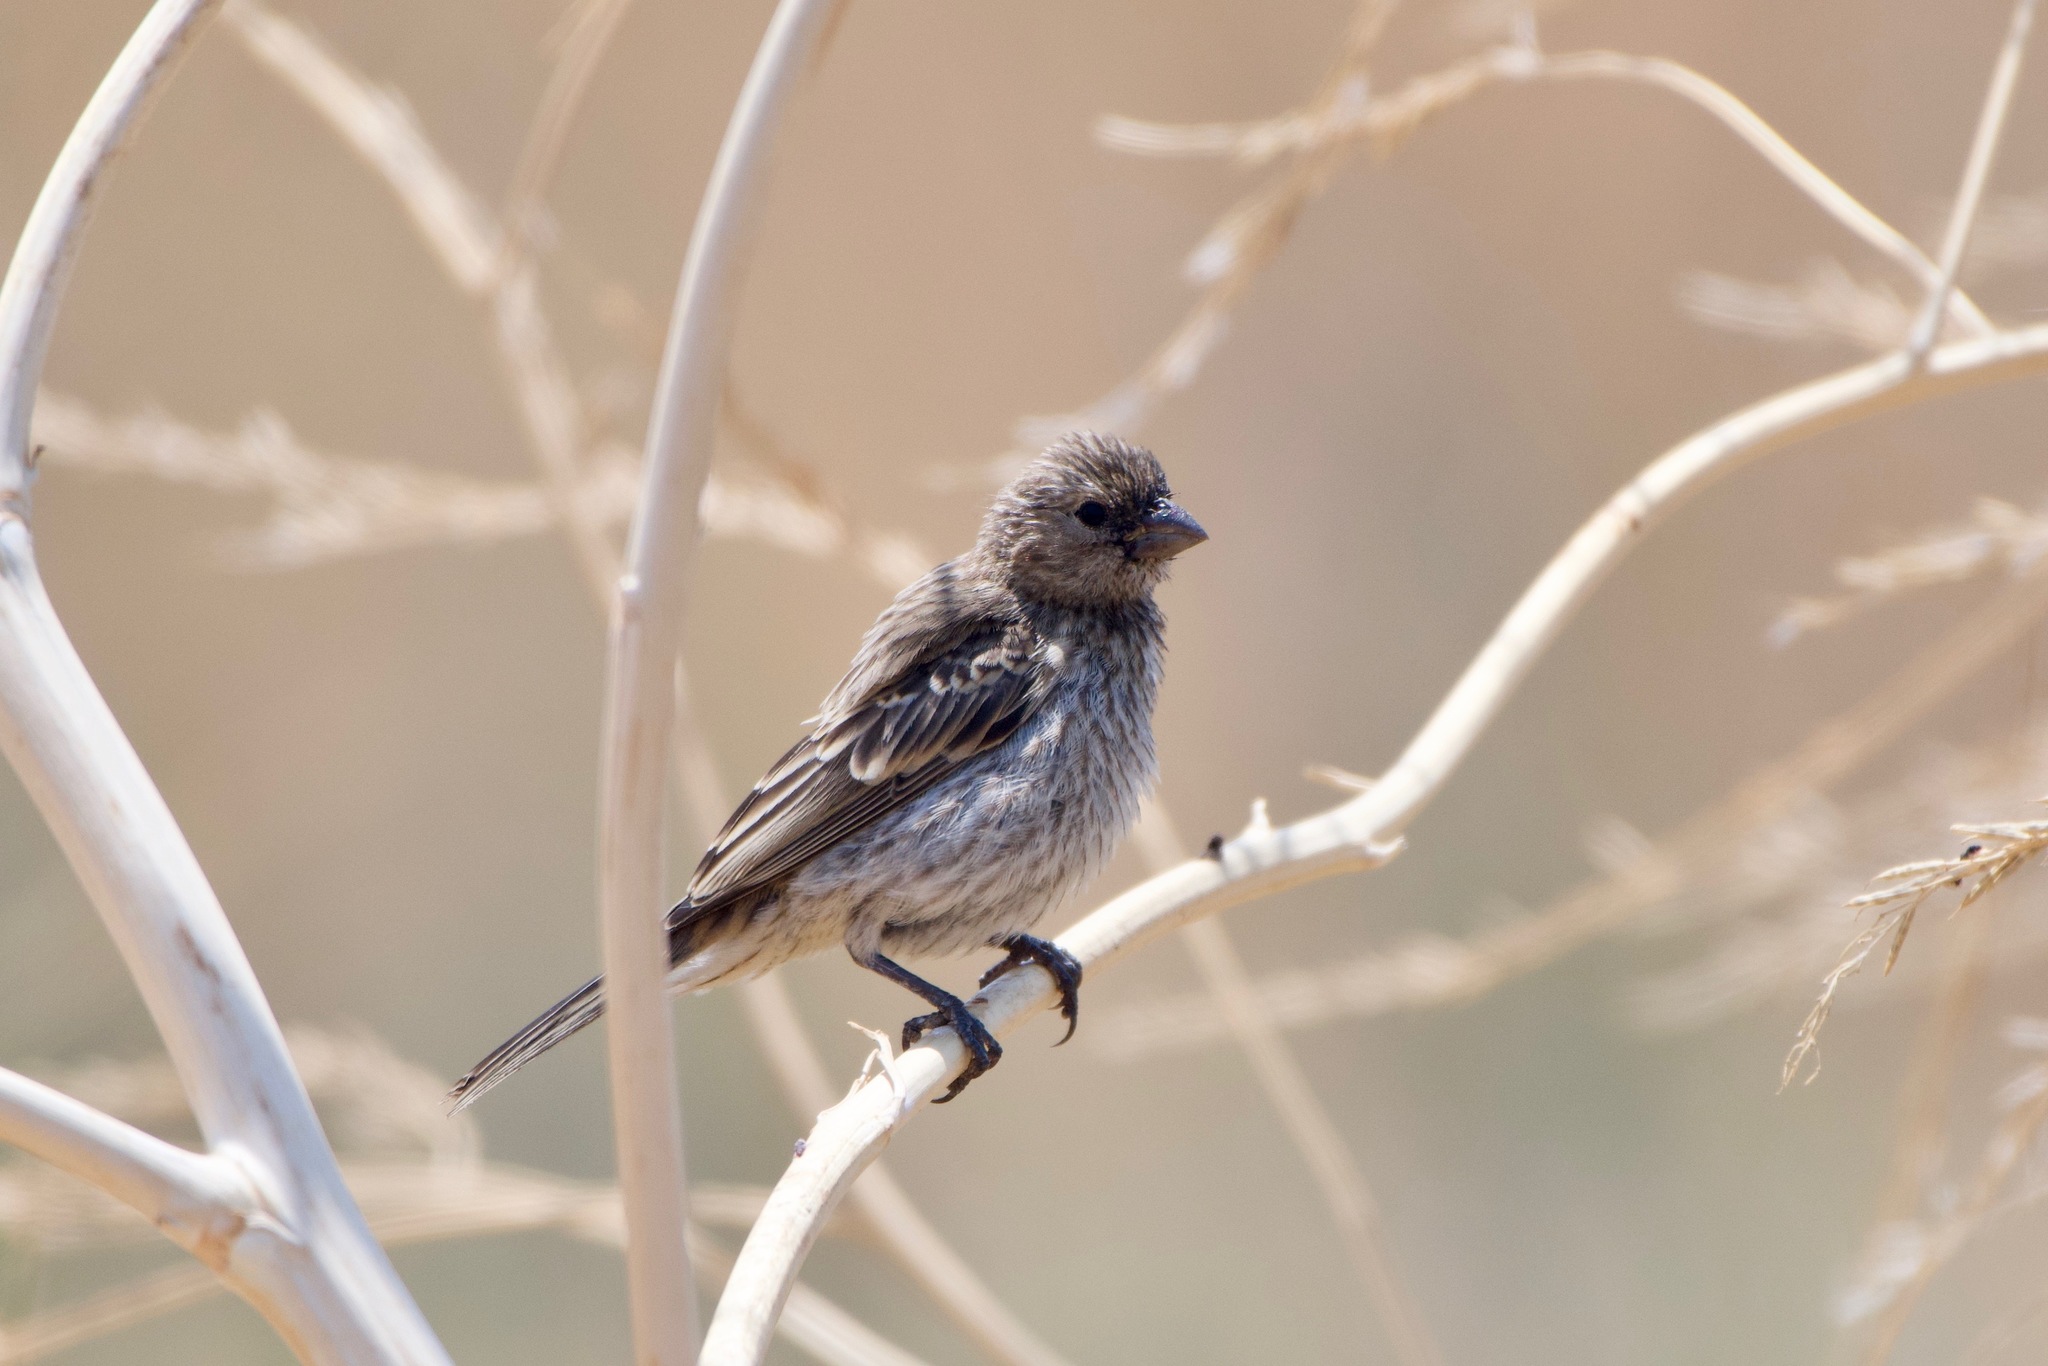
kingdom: Animalia
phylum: Chordata
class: Aves
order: Passeriformes
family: Fringillidae
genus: Haemorhous
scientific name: Haemorhous mexicanus
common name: House finch
